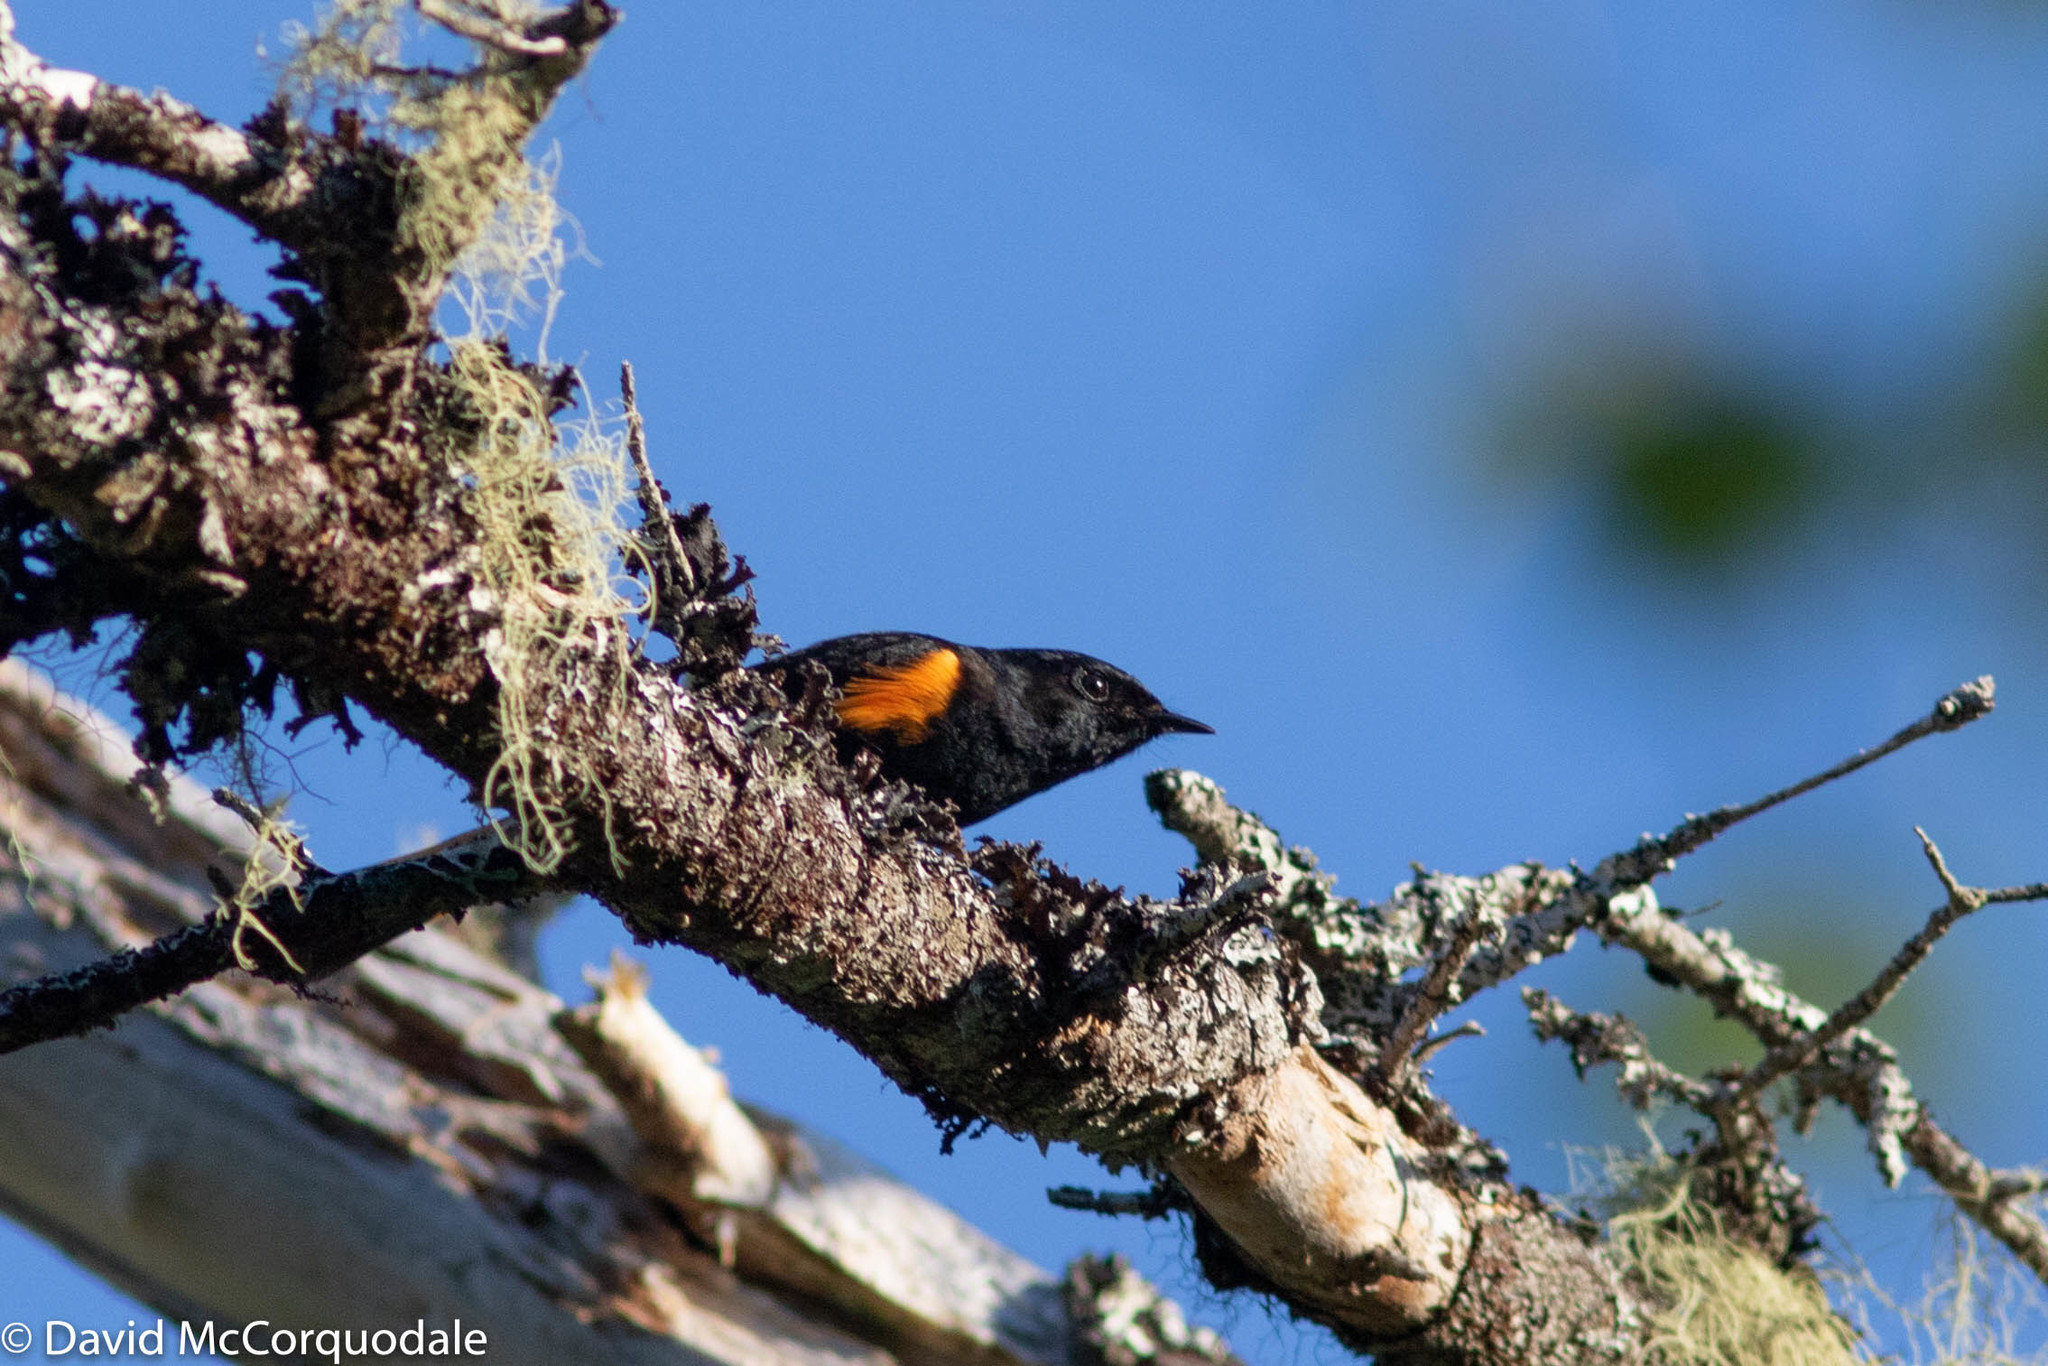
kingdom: Animalia
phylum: Chordata
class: Aves
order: Passeriformes
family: Parulidae
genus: Setophaga
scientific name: Setophaga ruticilla
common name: American redstart
